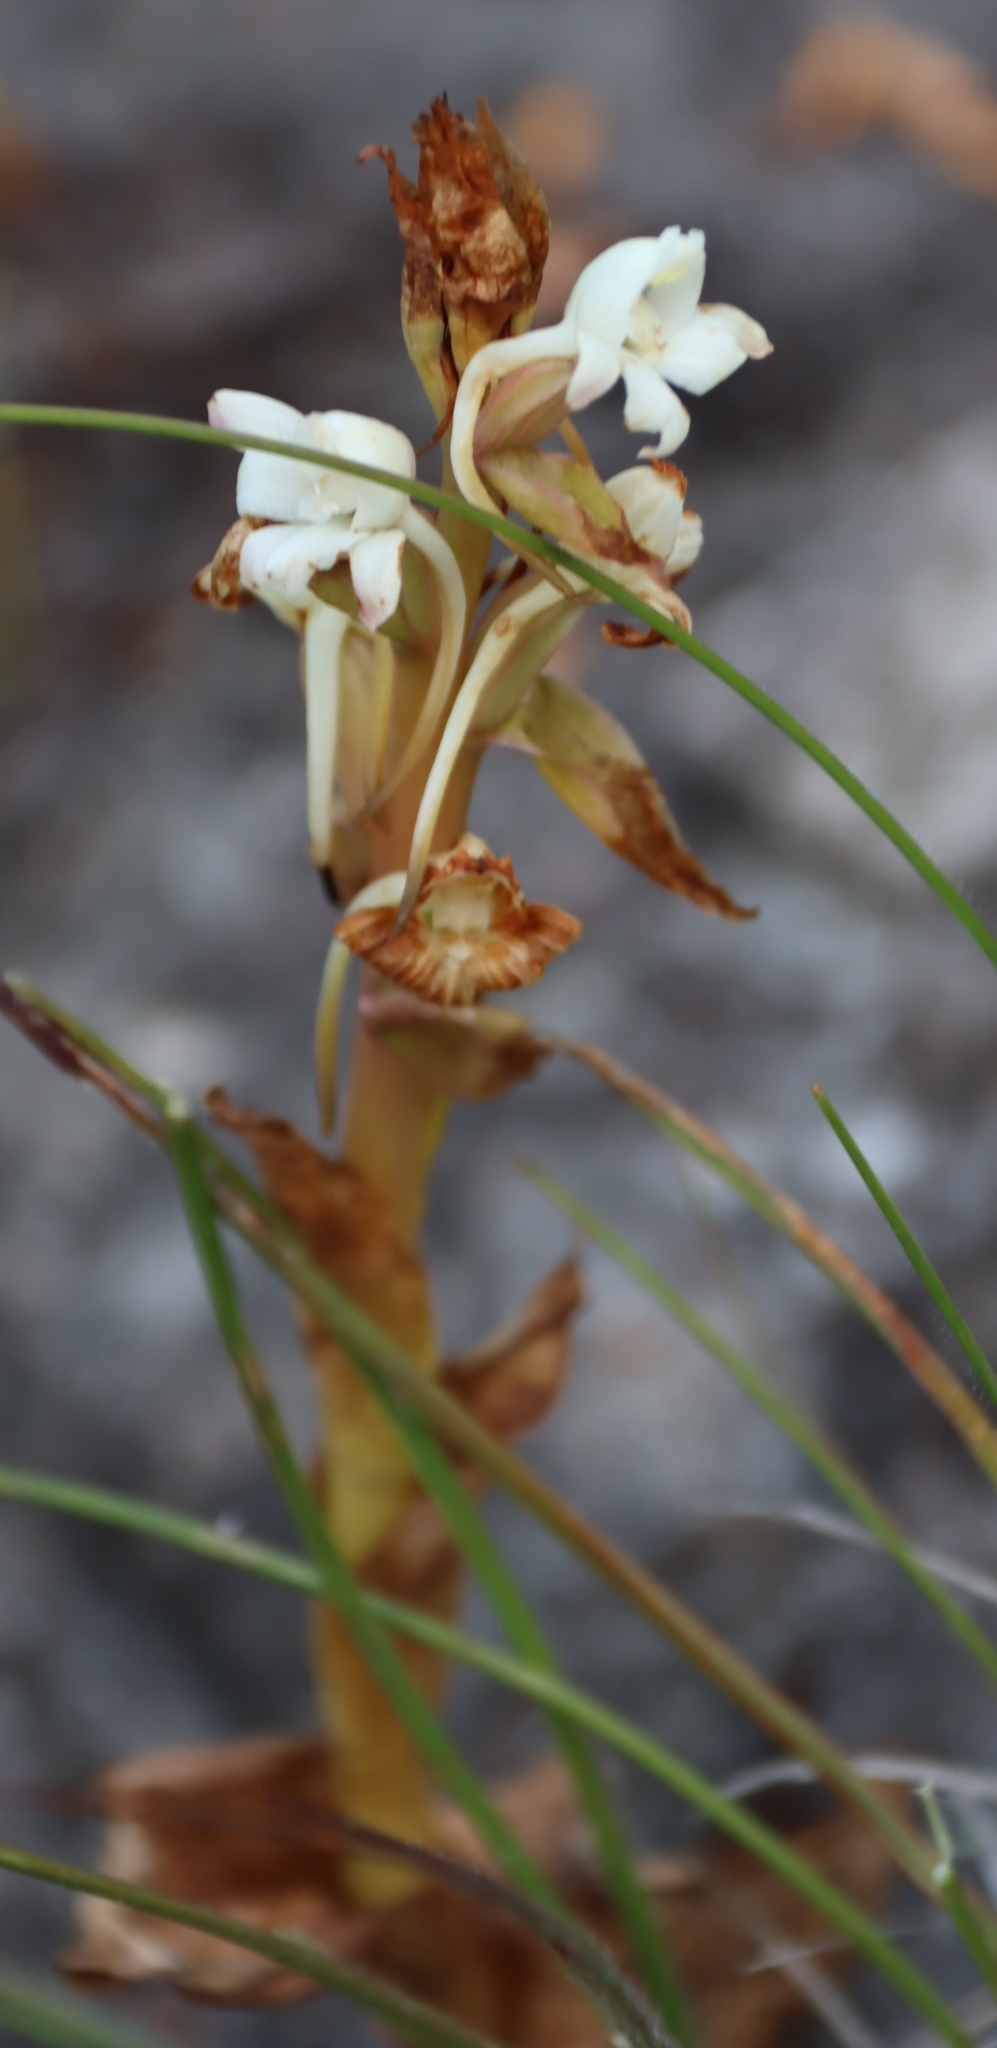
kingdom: Plantae
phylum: Tracheophyta
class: Liliopsida
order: Asparagales
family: Orchidaceae
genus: Satyrium
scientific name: Satyrium acuminatum
